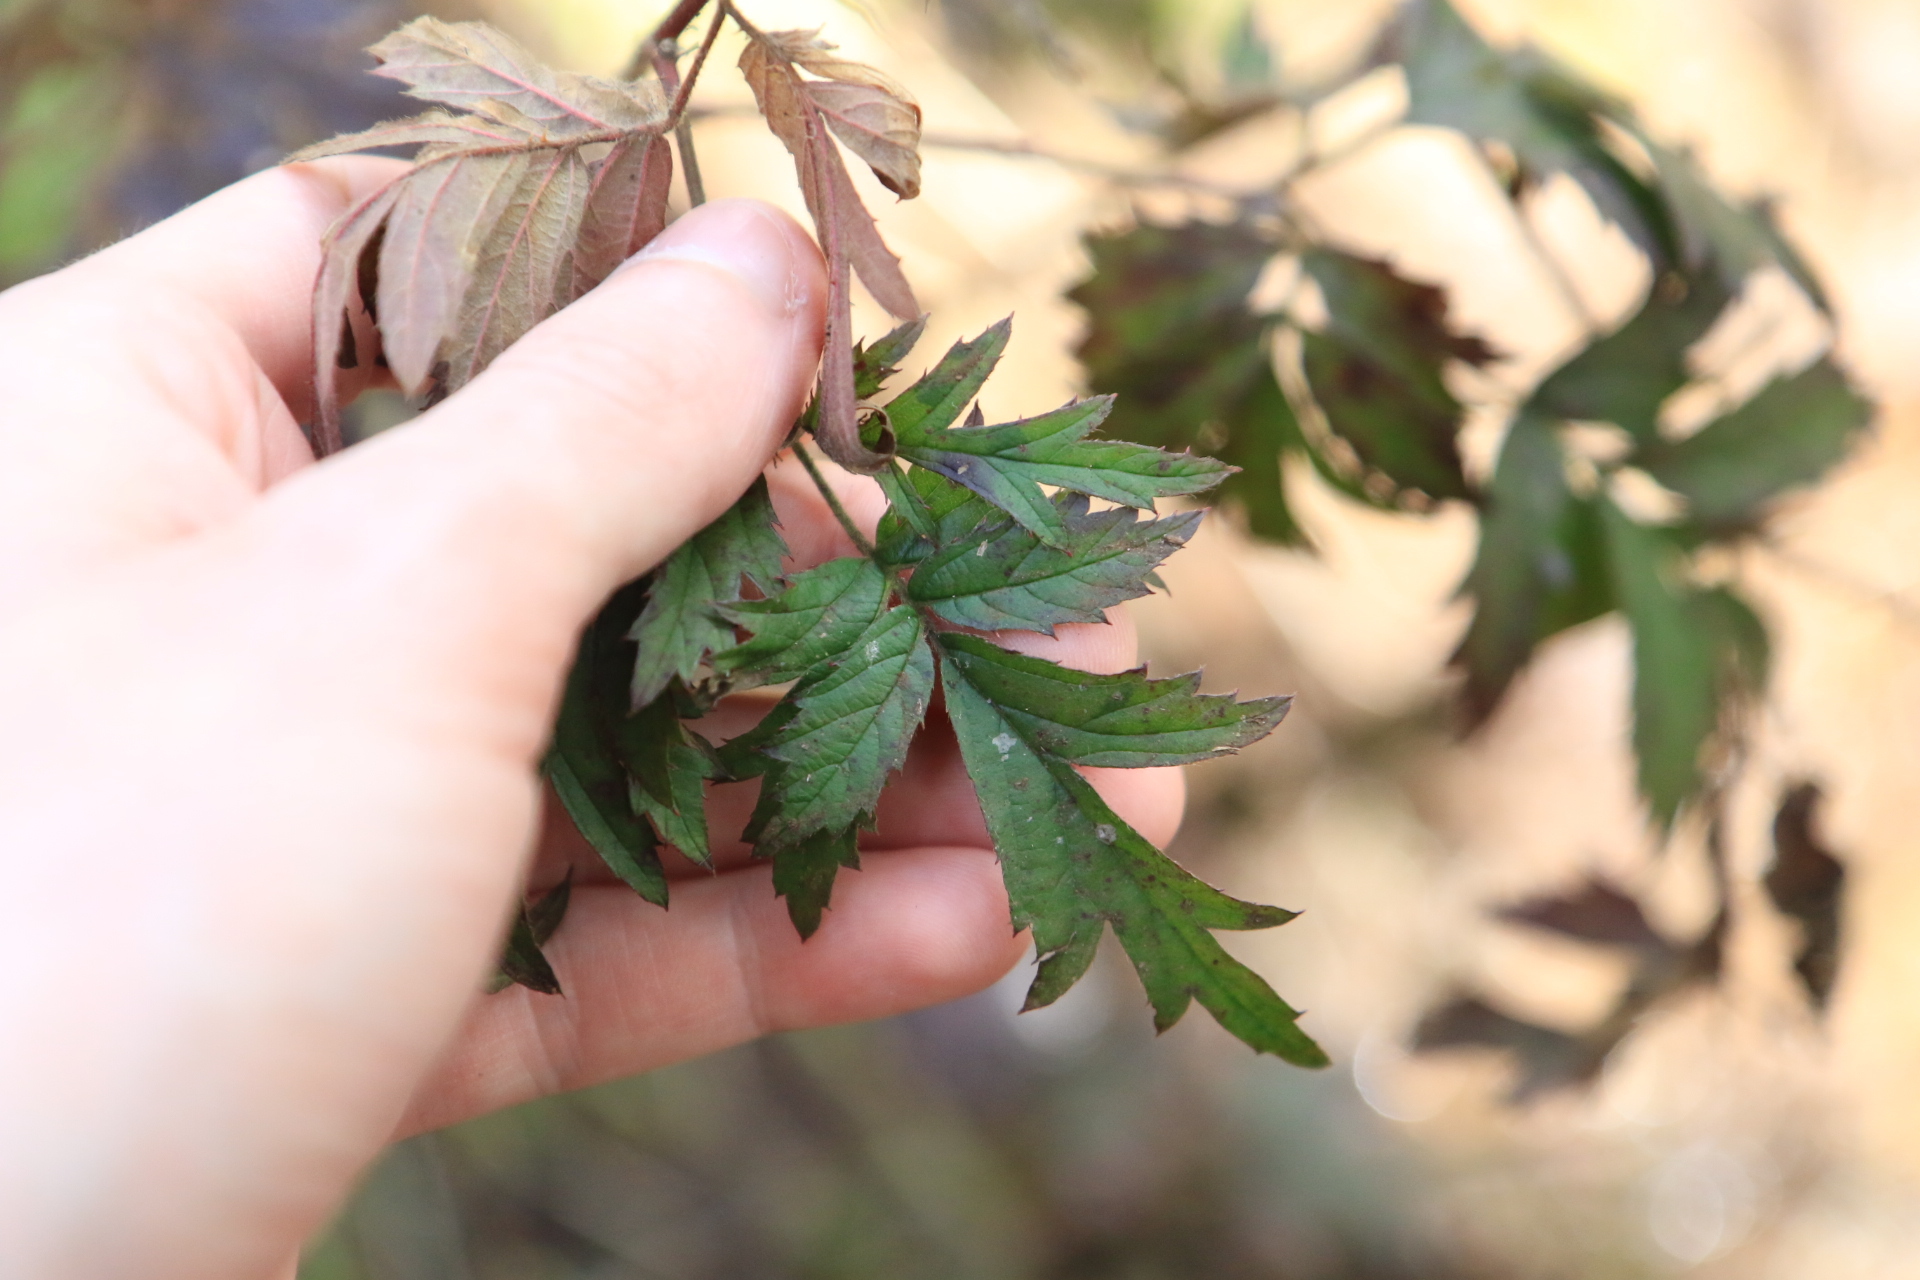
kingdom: Plantae
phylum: Tracheophyta
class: Magnoliopsida
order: Rosales
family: Rosaceae
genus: Rubus
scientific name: Rubus laciniatus
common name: Evergreen blackberry
